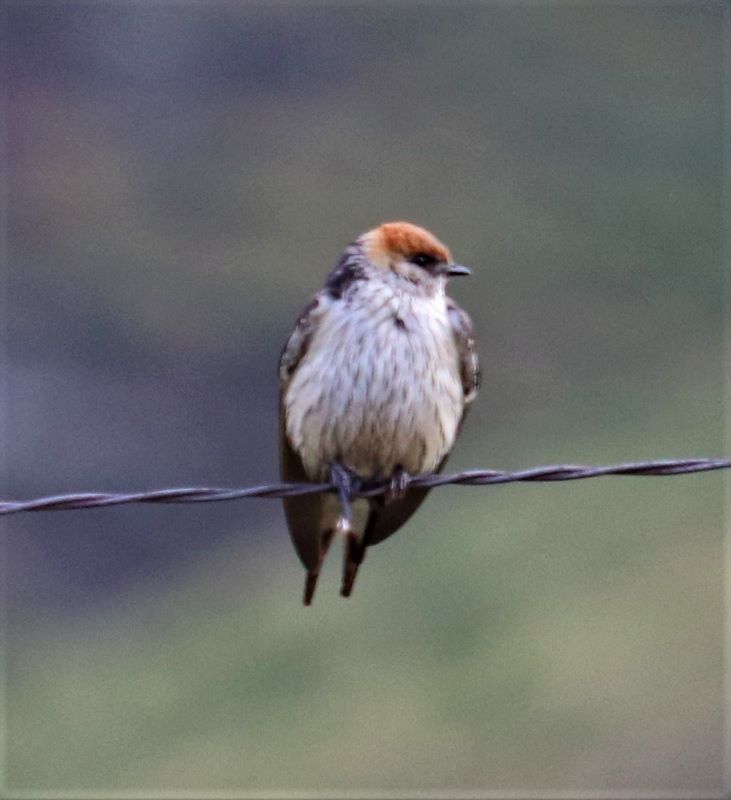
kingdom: Animalia
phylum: Chordata
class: Aves
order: Passeriformes
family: Hirundinidae
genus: Cecropis
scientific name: Cecropis cucullata
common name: Greater striped-swallow
